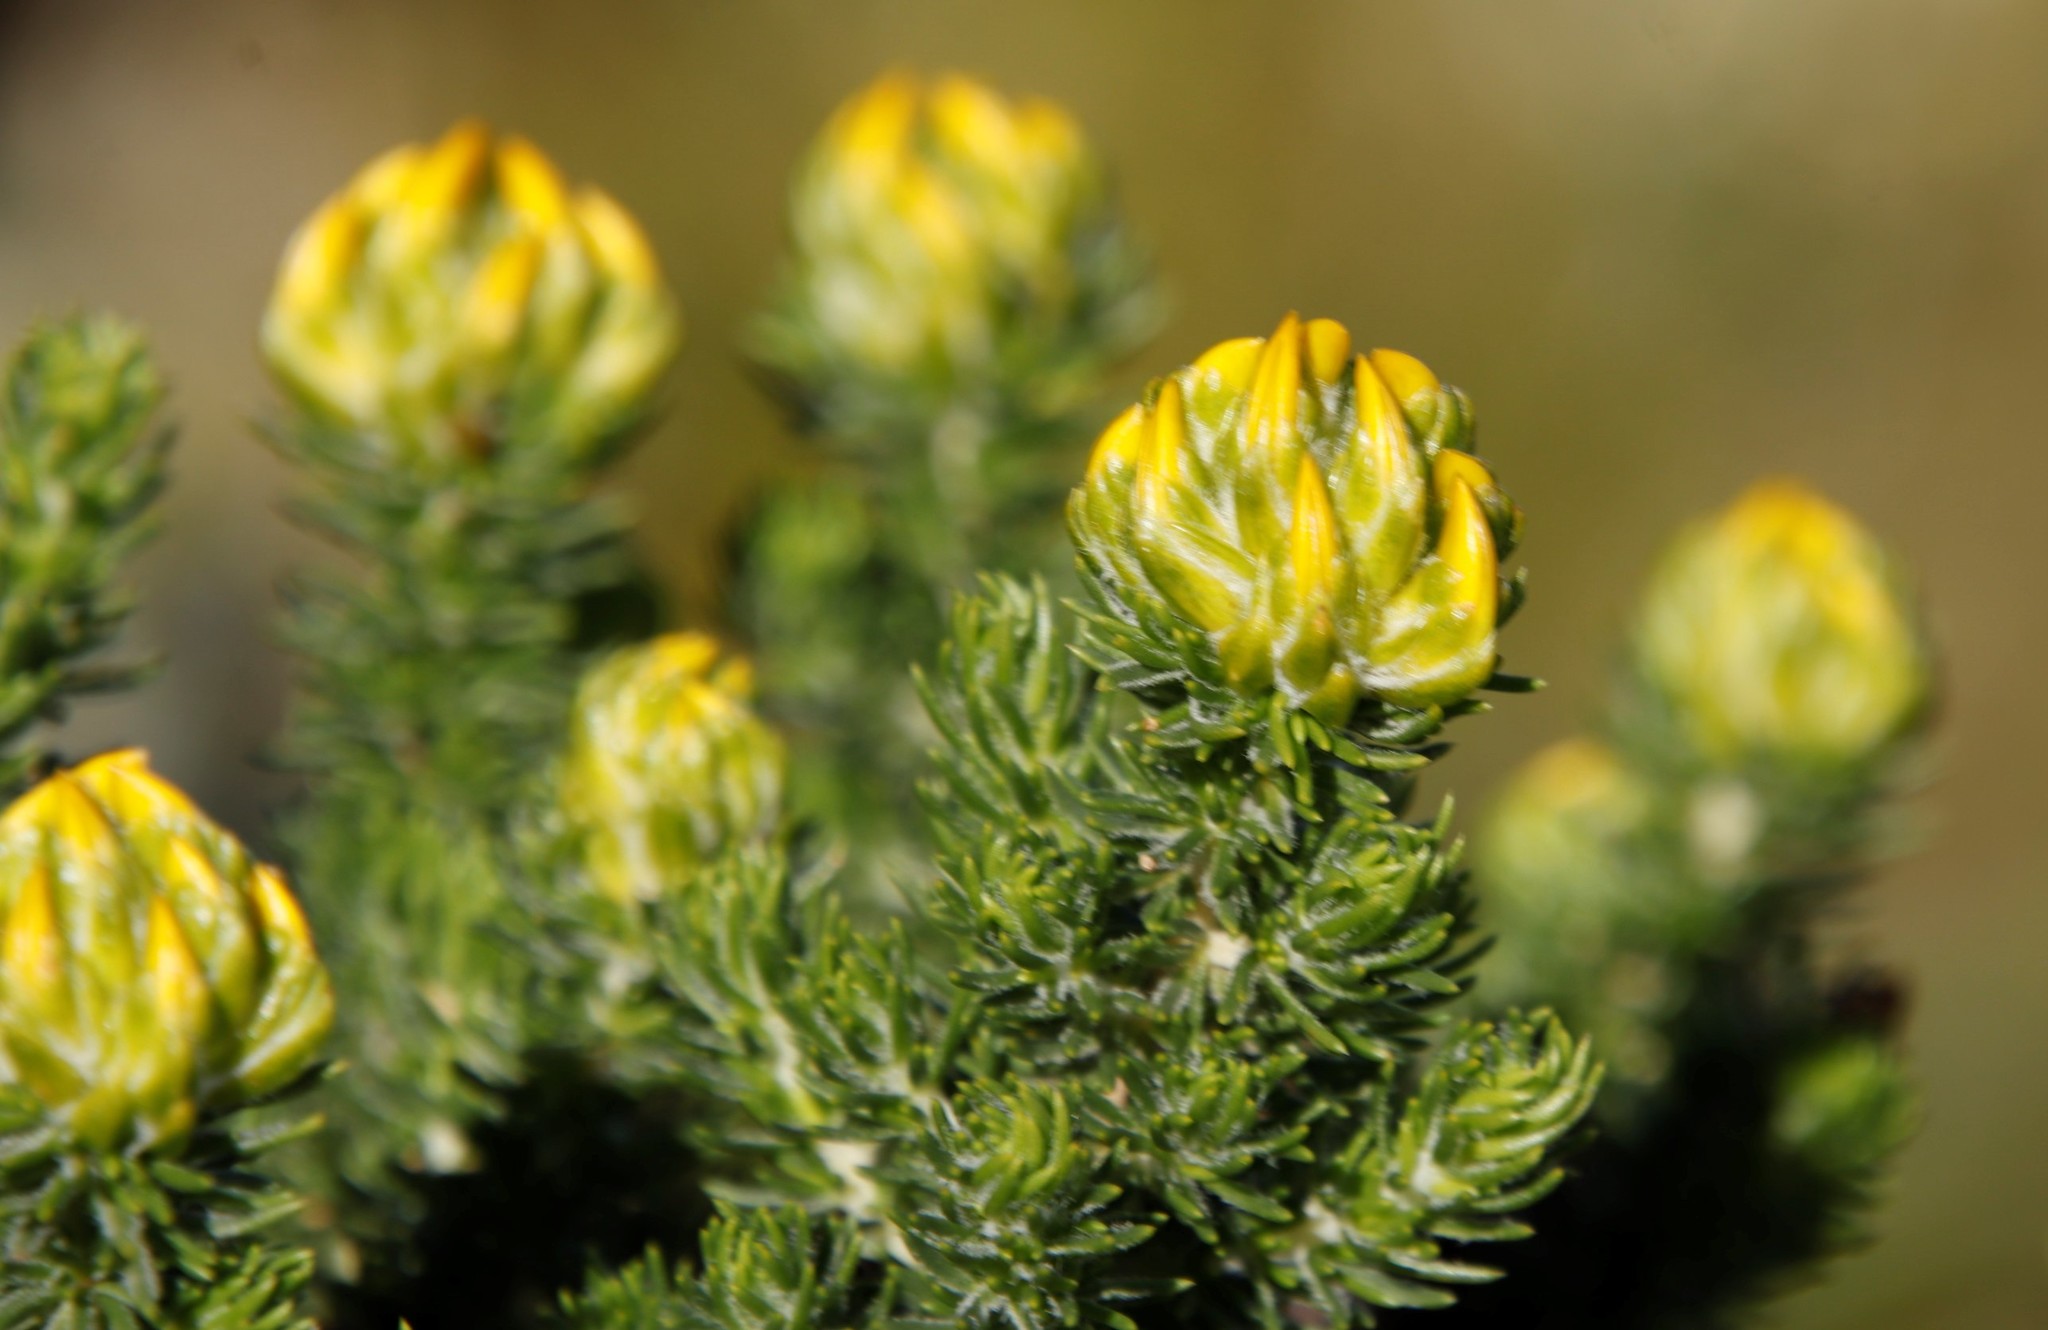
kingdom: Plantae
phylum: Tracheophyta
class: Magnoliopsida
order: Fabales
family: Fabaceae
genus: Aspalathus
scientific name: Aspalathus capitata
